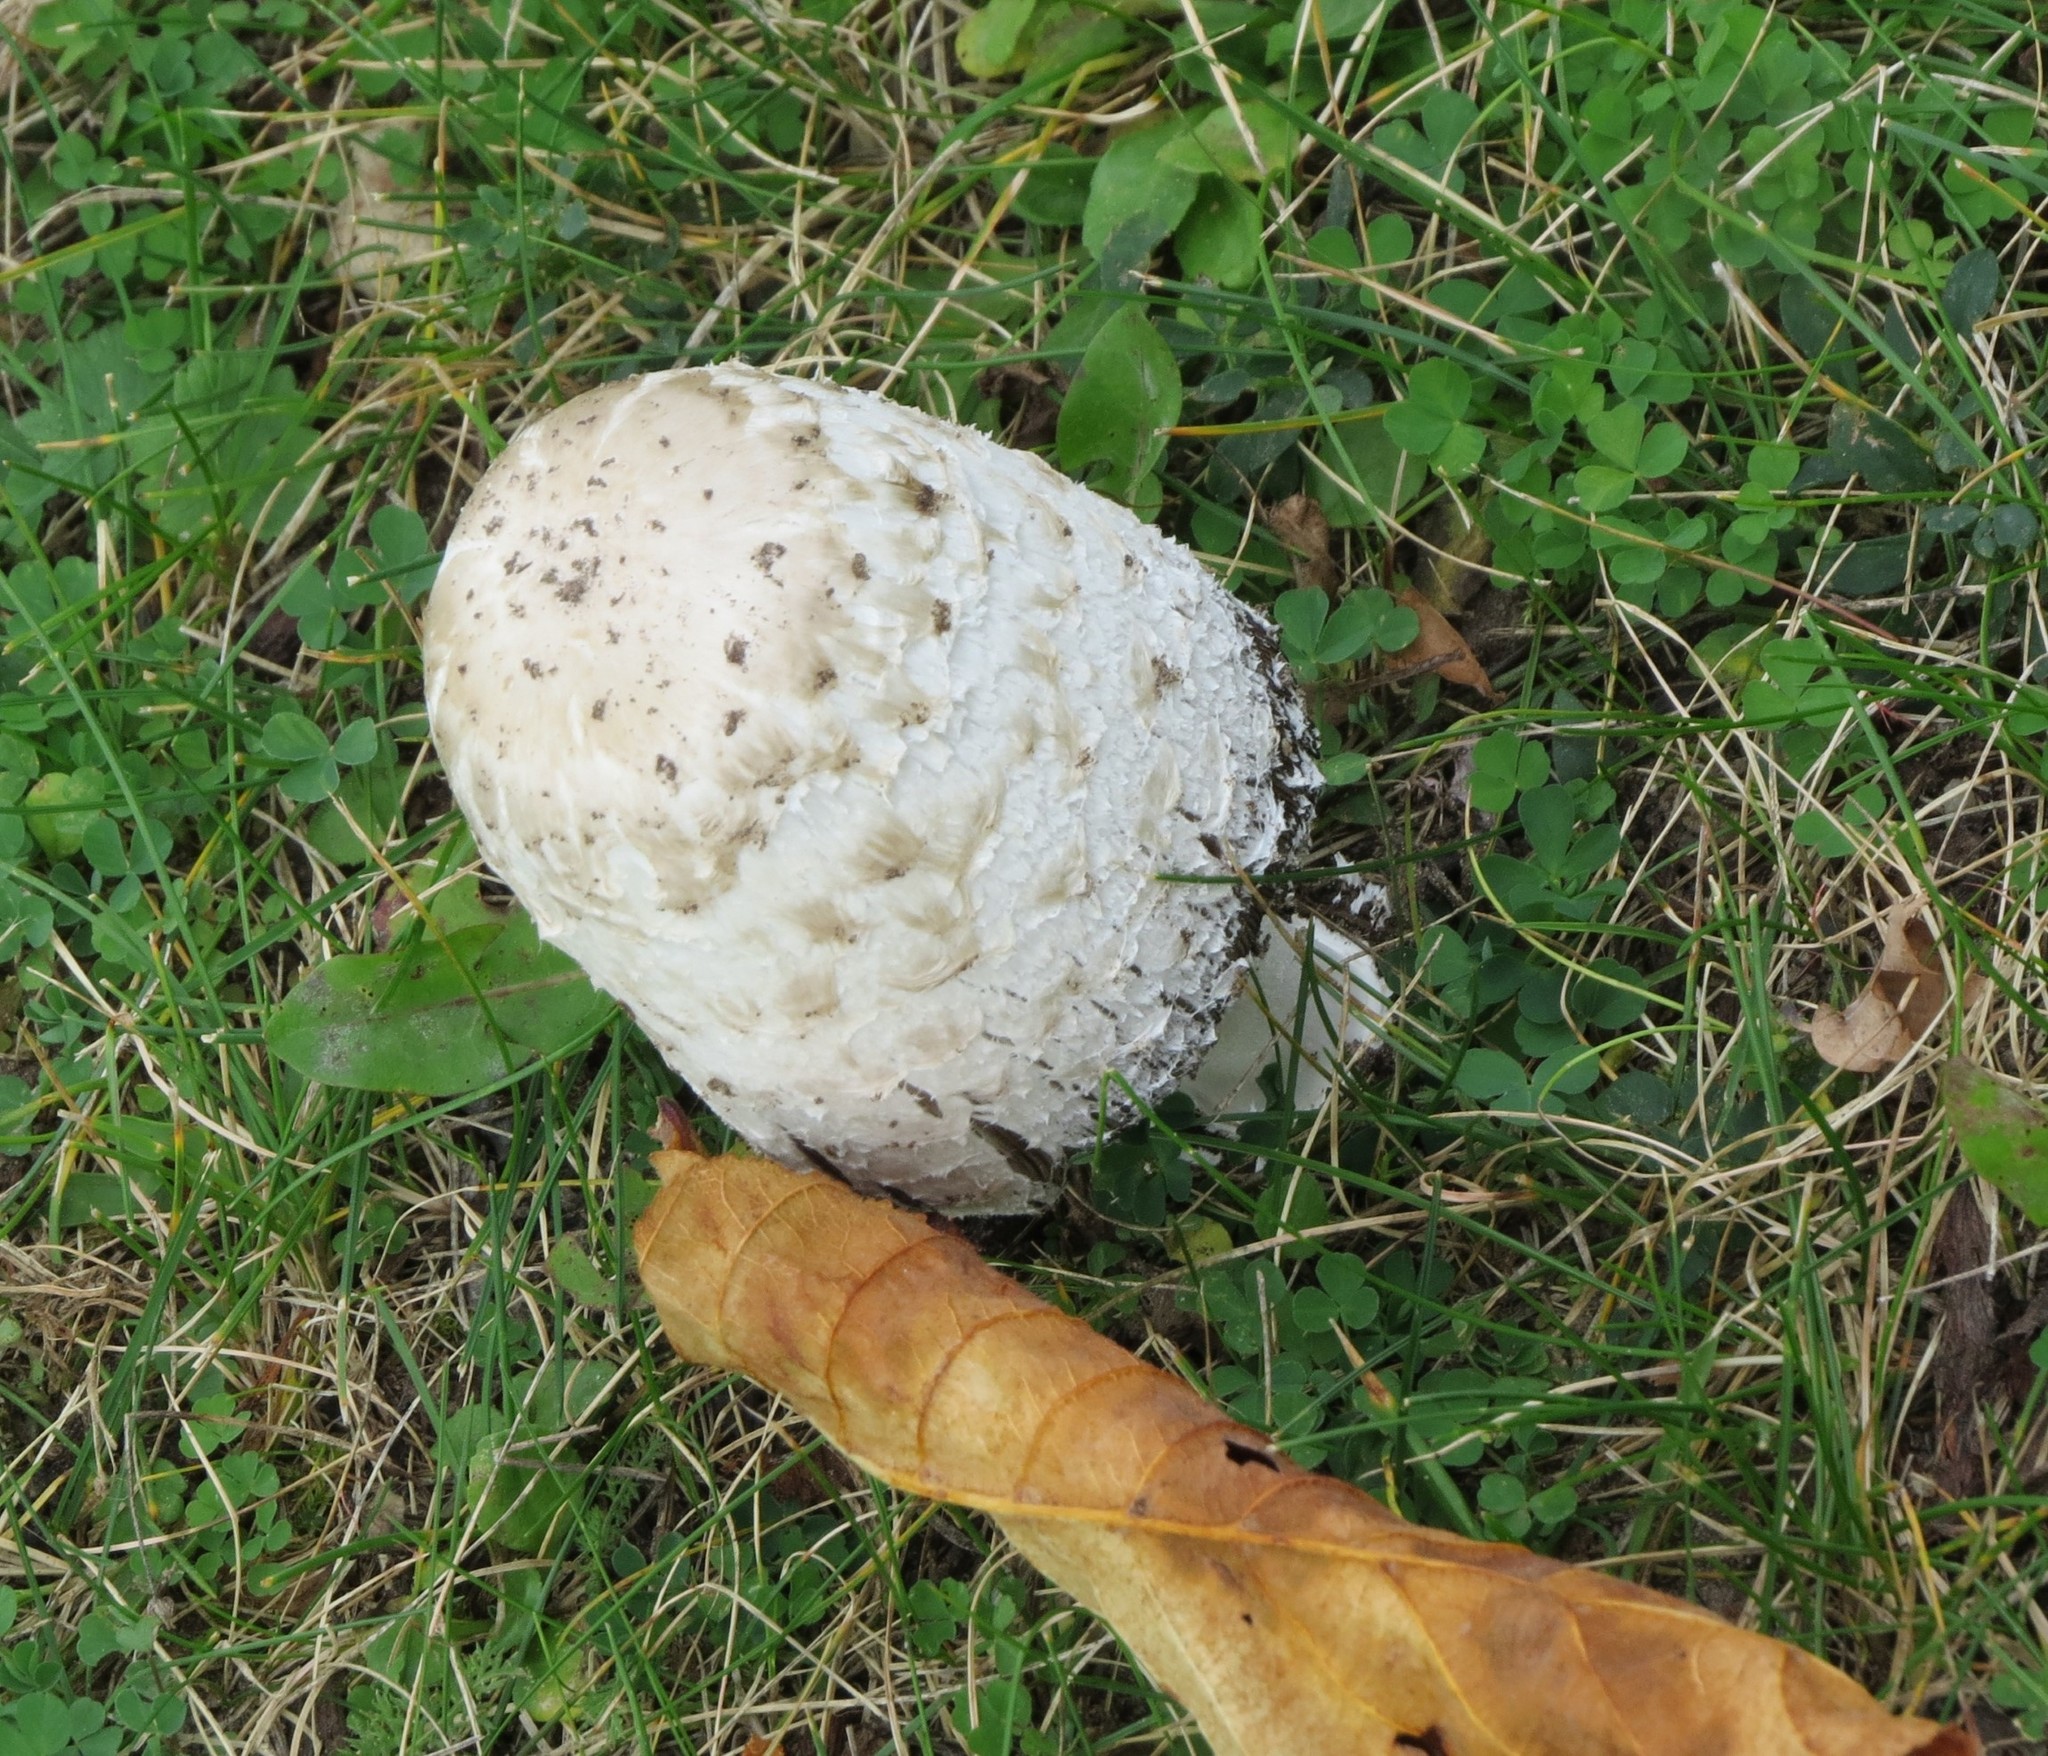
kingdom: Fungi
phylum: Basidiomycota
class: Agaricomycetes
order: Agaricales
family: Agaricaceae
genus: Coprinus
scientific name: Coprinus comatus
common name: Lawyer's wig
